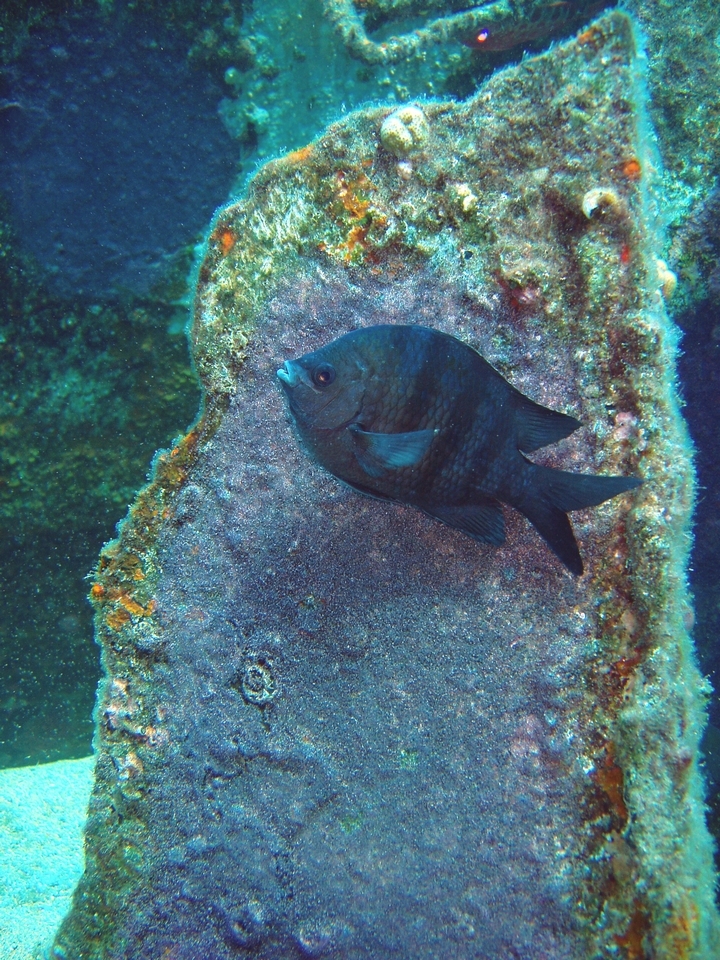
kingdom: Animalia
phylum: Chordata
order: Perciformes
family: Pomacentridae
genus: Abudefduf
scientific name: Abudefduf saxatilis
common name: Sergeant major
